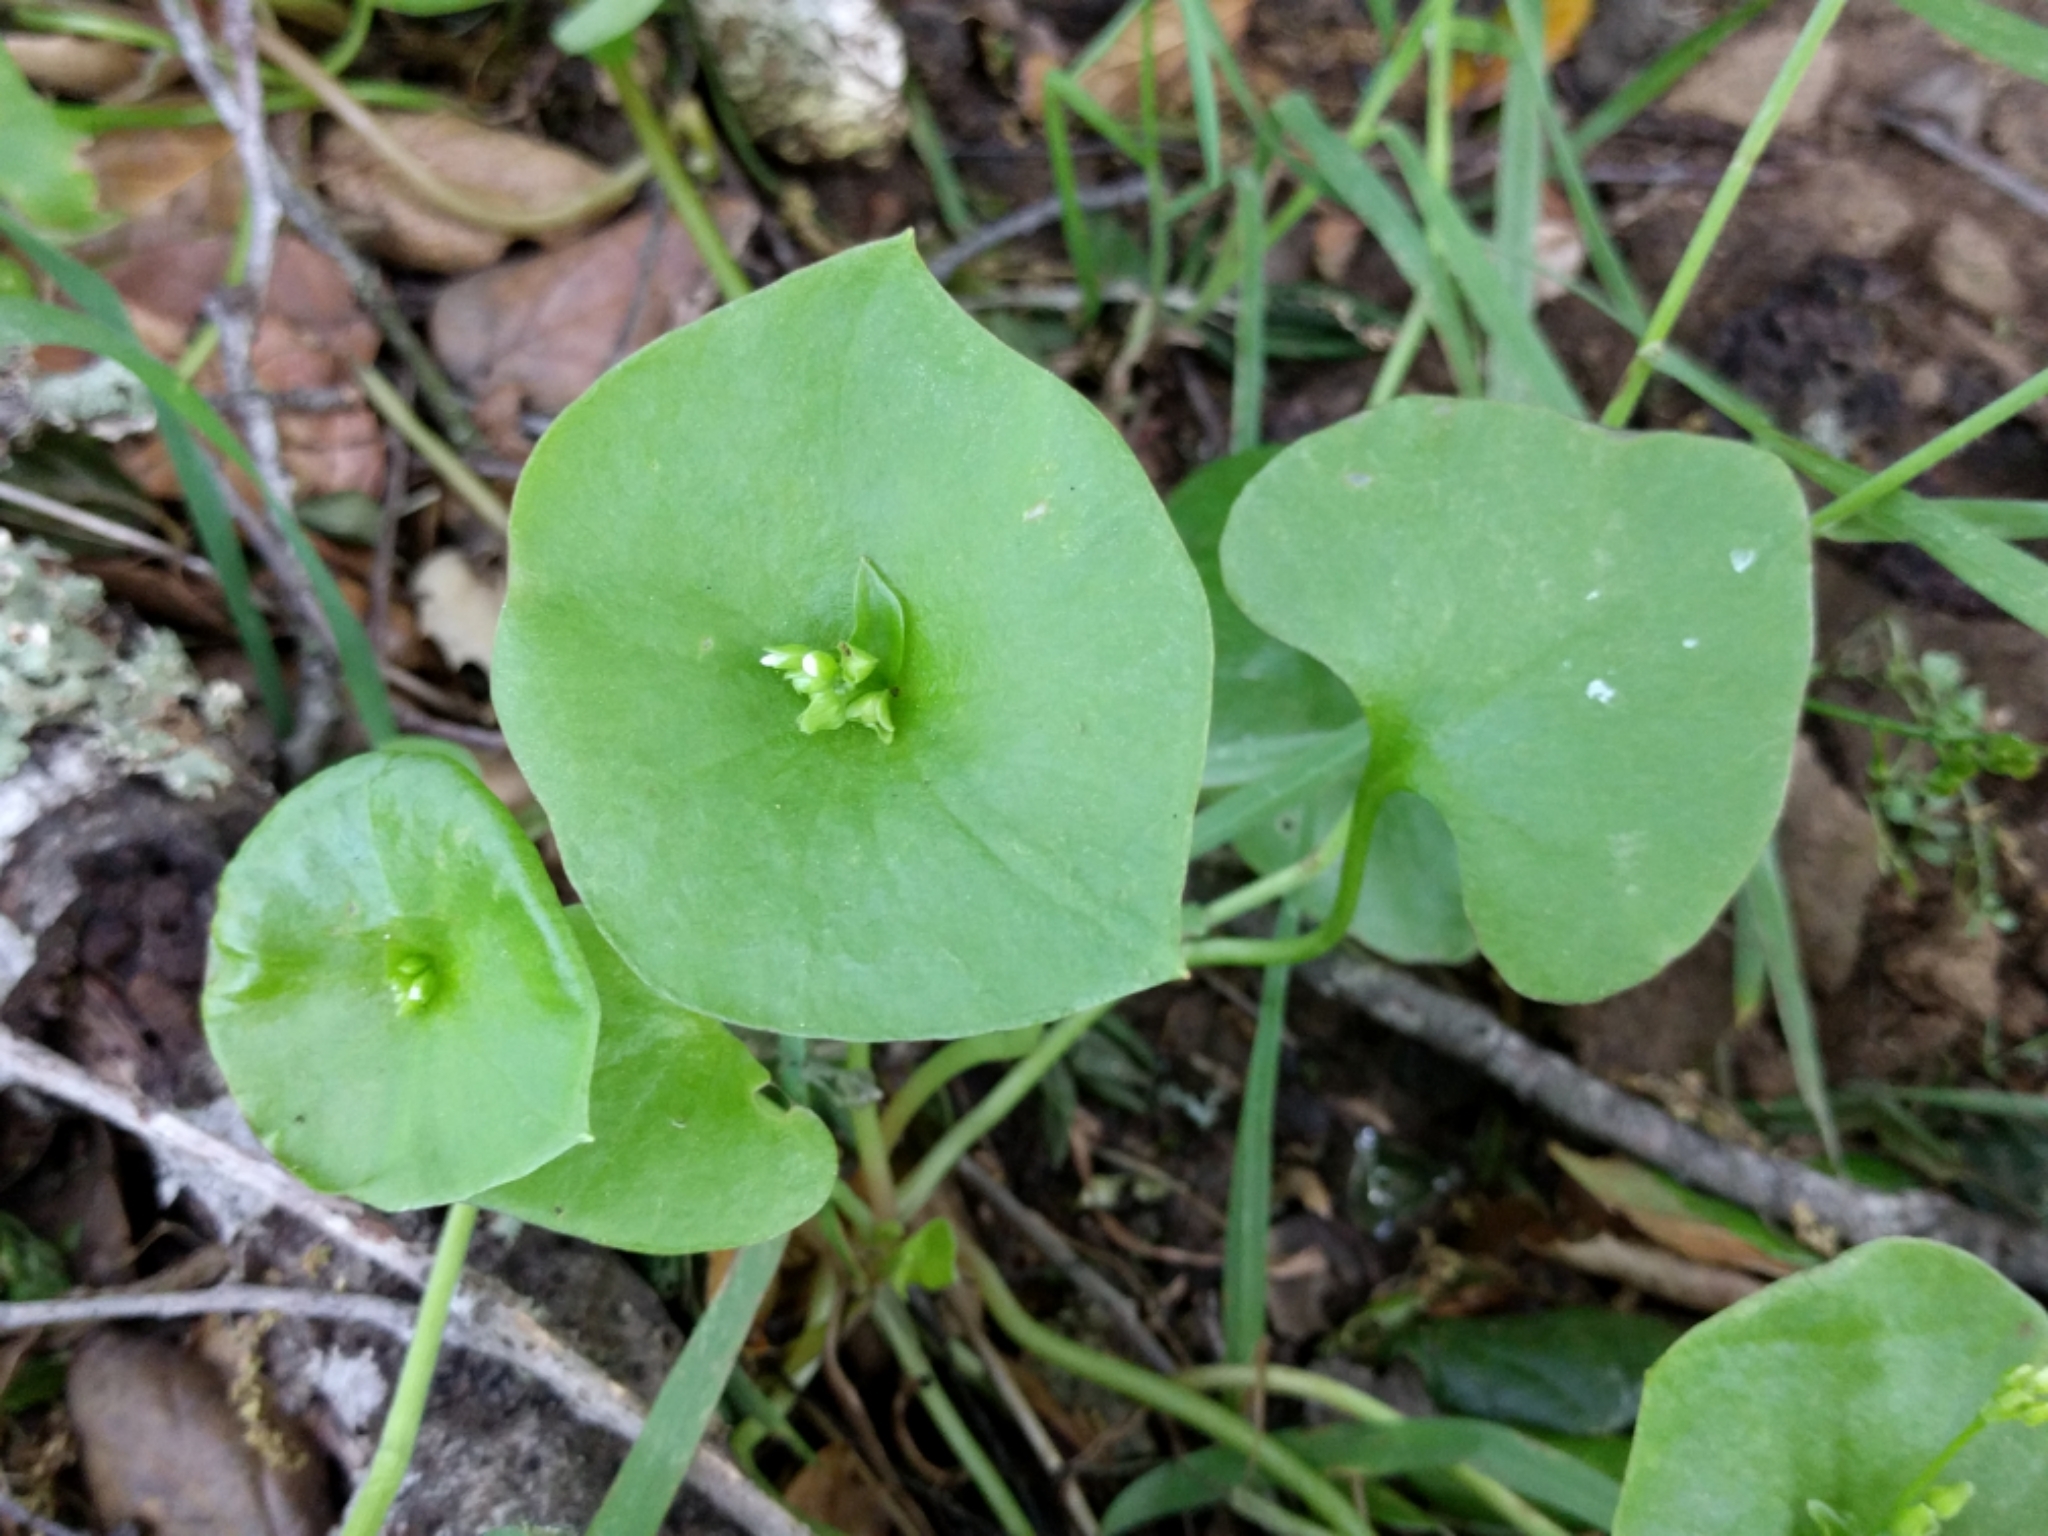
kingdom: Plantae
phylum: Tracheophyta
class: Magnoliopsida
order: Caryophyllales
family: Montiaceae
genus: Claytonia
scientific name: Claytonia perfoliata
